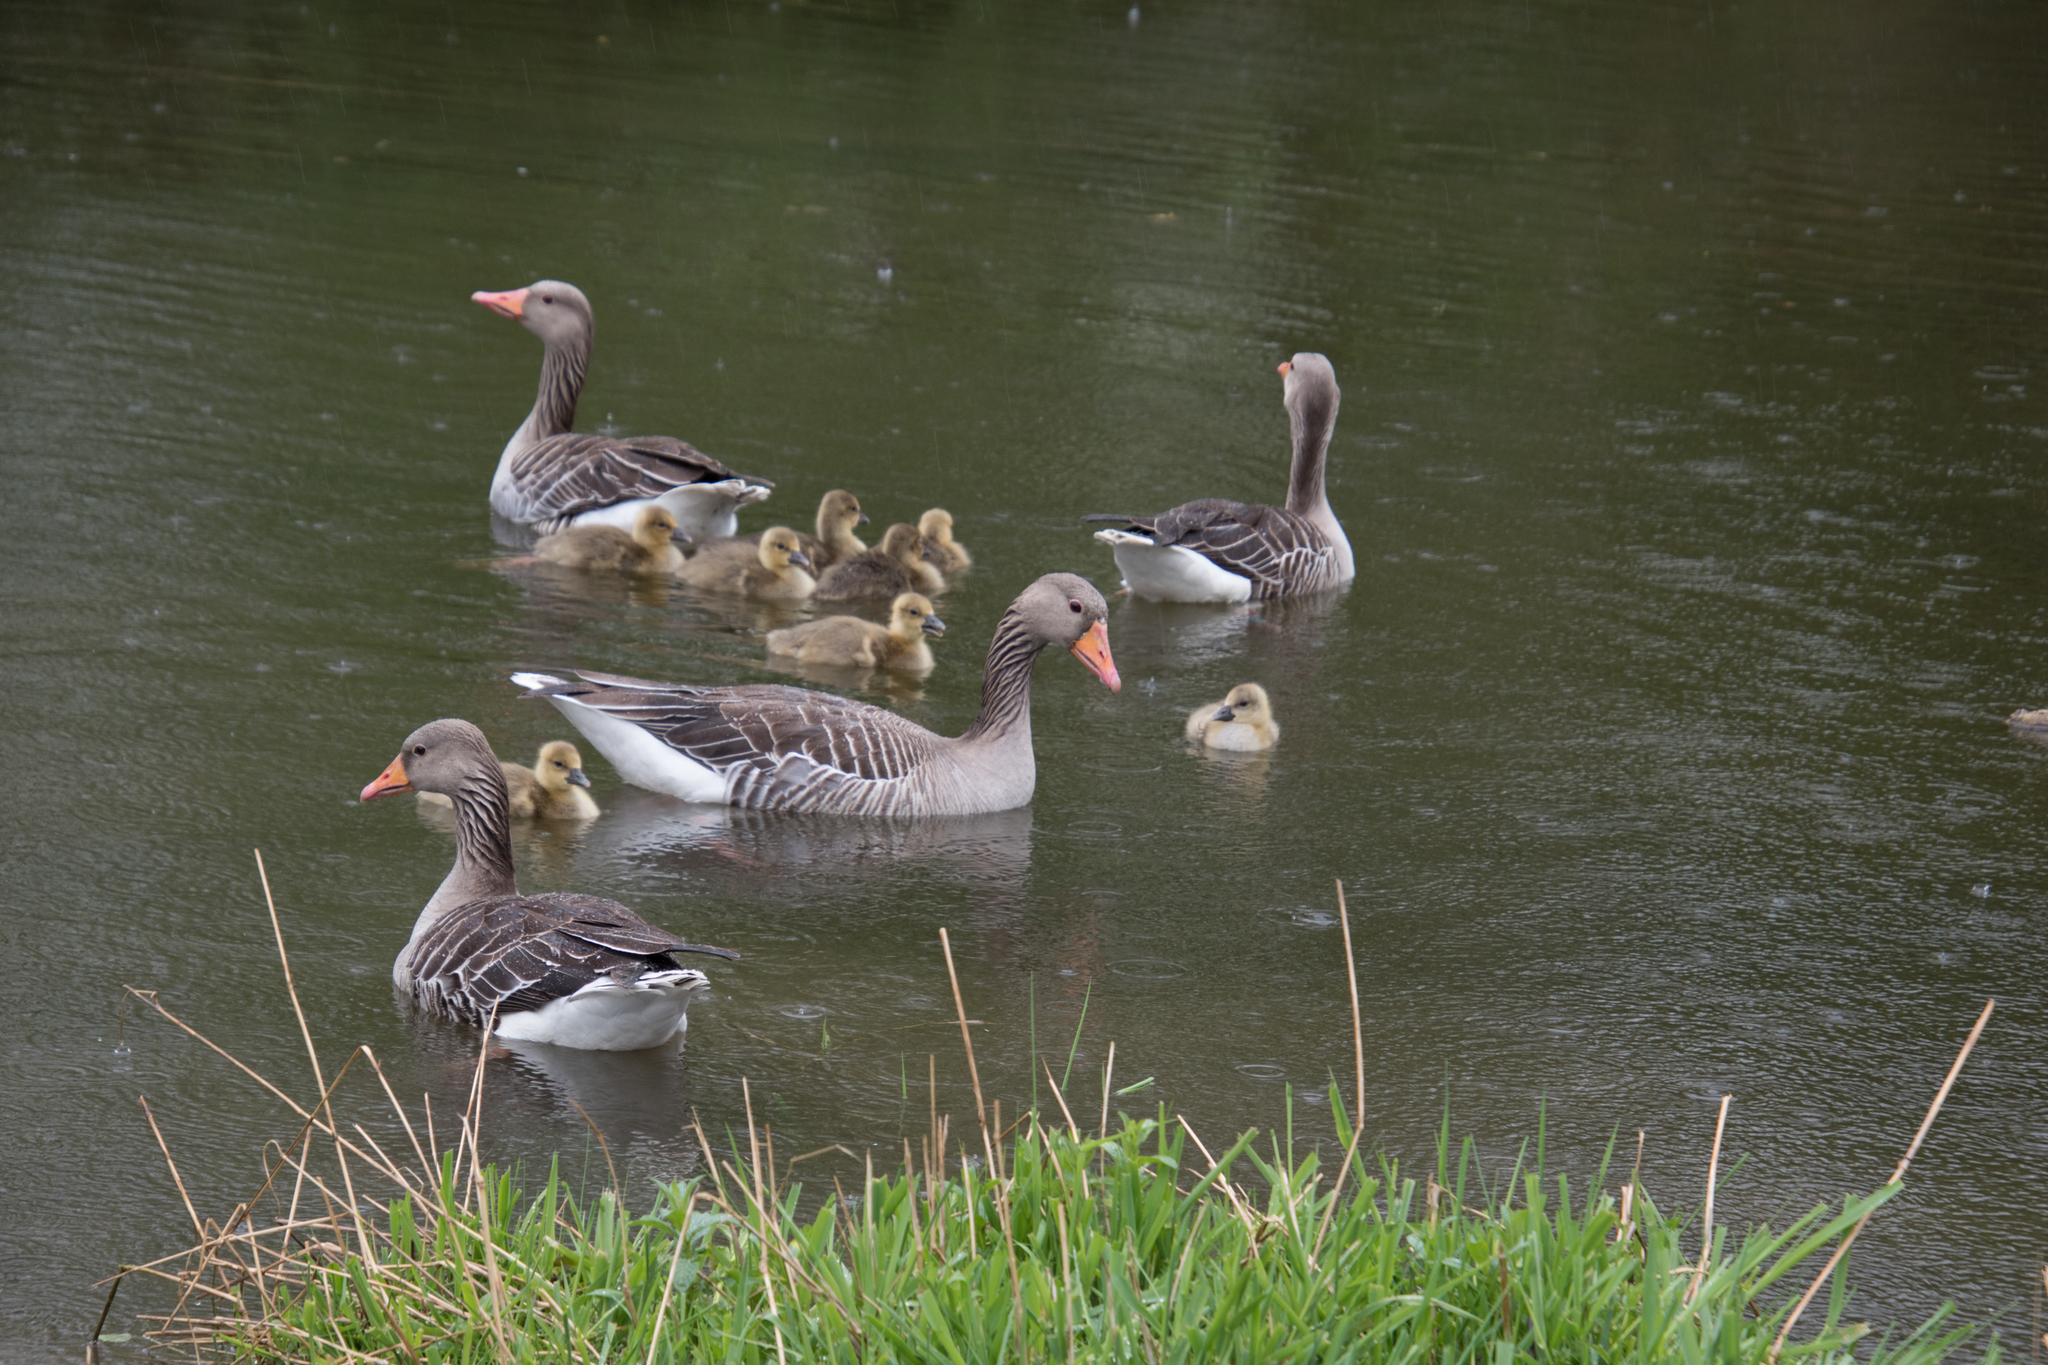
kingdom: Animalia
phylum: Chordata
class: Aves
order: Anseriformes
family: Anatidae
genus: Anser
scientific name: Anser anser
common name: Greylag goose
